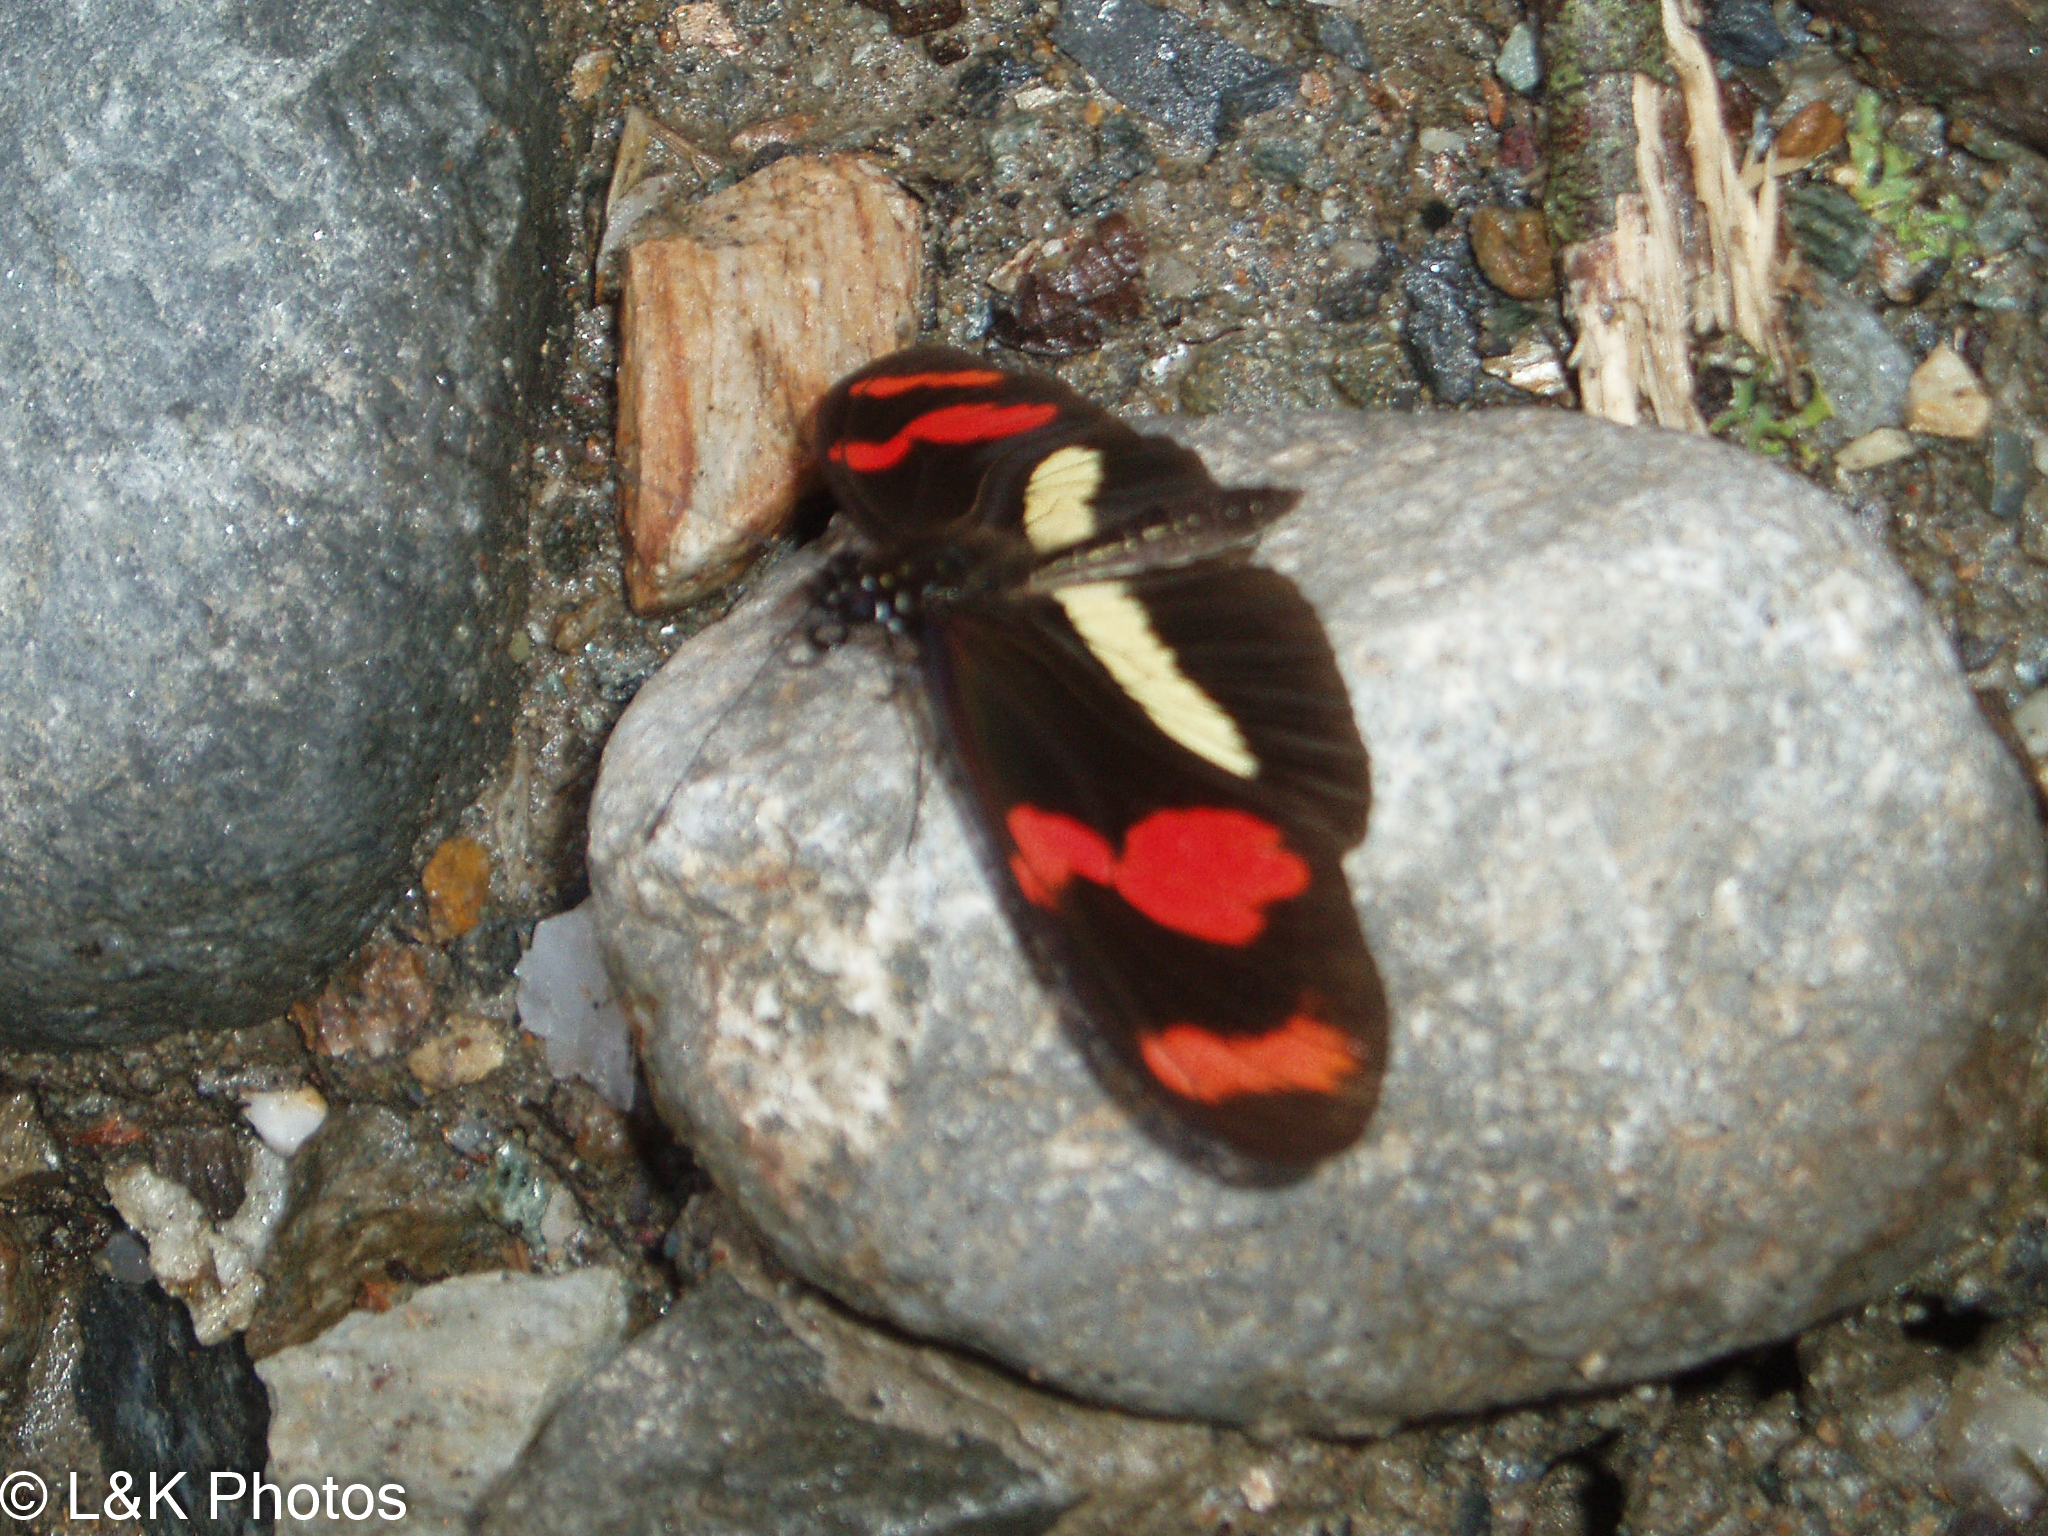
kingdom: Animalia
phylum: Arthropoda
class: Insecta
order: Lepidoptera
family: Nymphalidae
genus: Heliconius
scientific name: Heliconius telesiphe
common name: Telesiphe longwing
